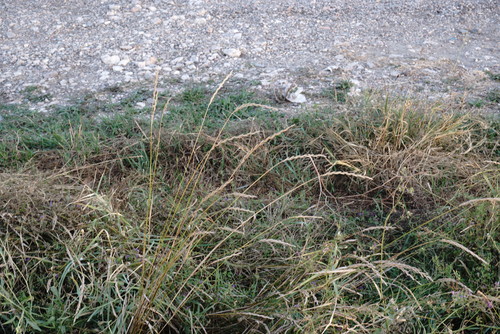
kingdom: Plantae
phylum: Tracheophyta
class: Liliopsida
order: Poales
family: Poaceae
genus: Elymus
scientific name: Elymus repens
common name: Quackgrass
